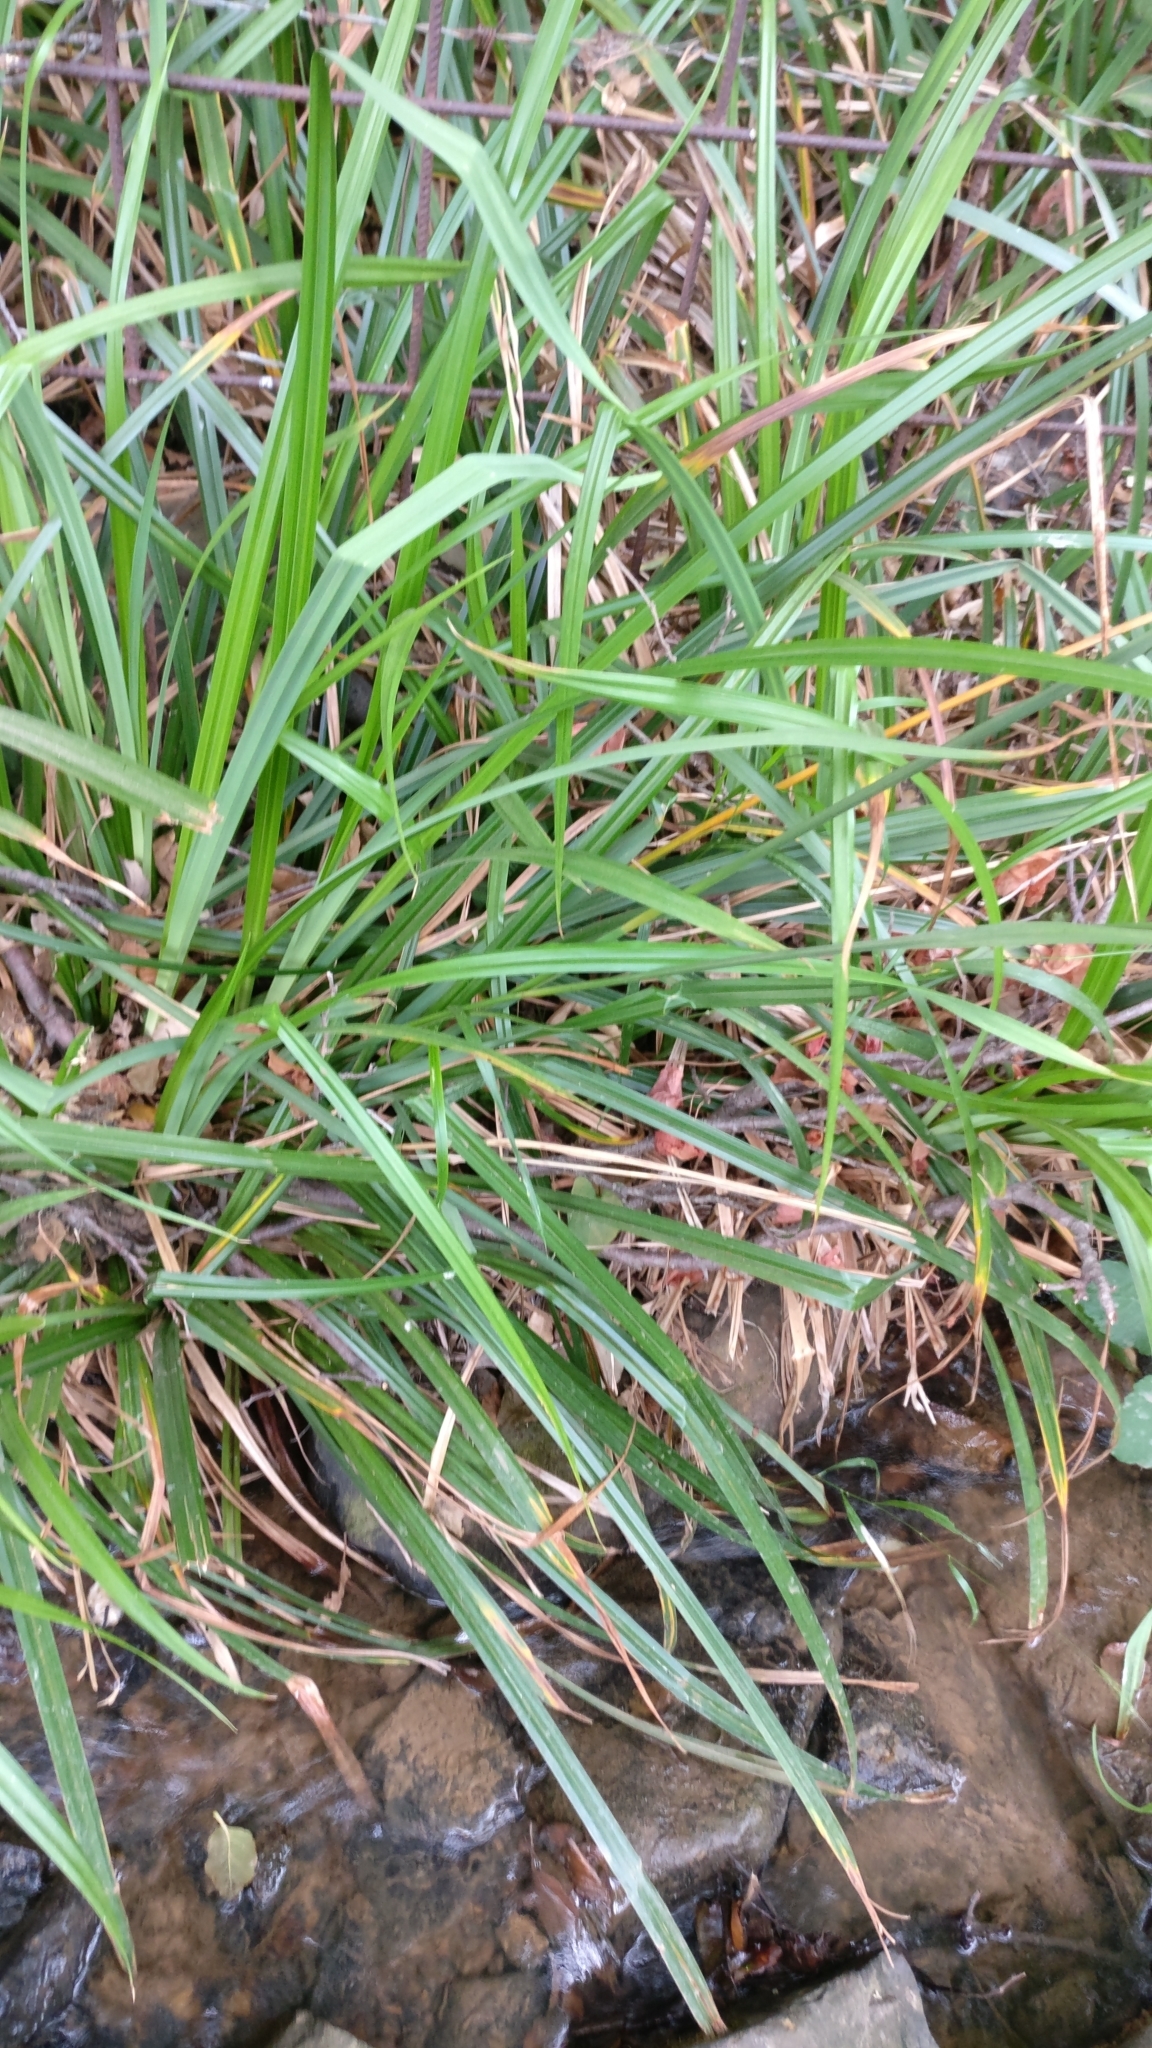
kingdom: Plantae
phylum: Tracheophyta
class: Liliopsida
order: Poales
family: Cyperaceae
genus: Carex
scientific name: Carex pendula
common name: Pendulous sedge
